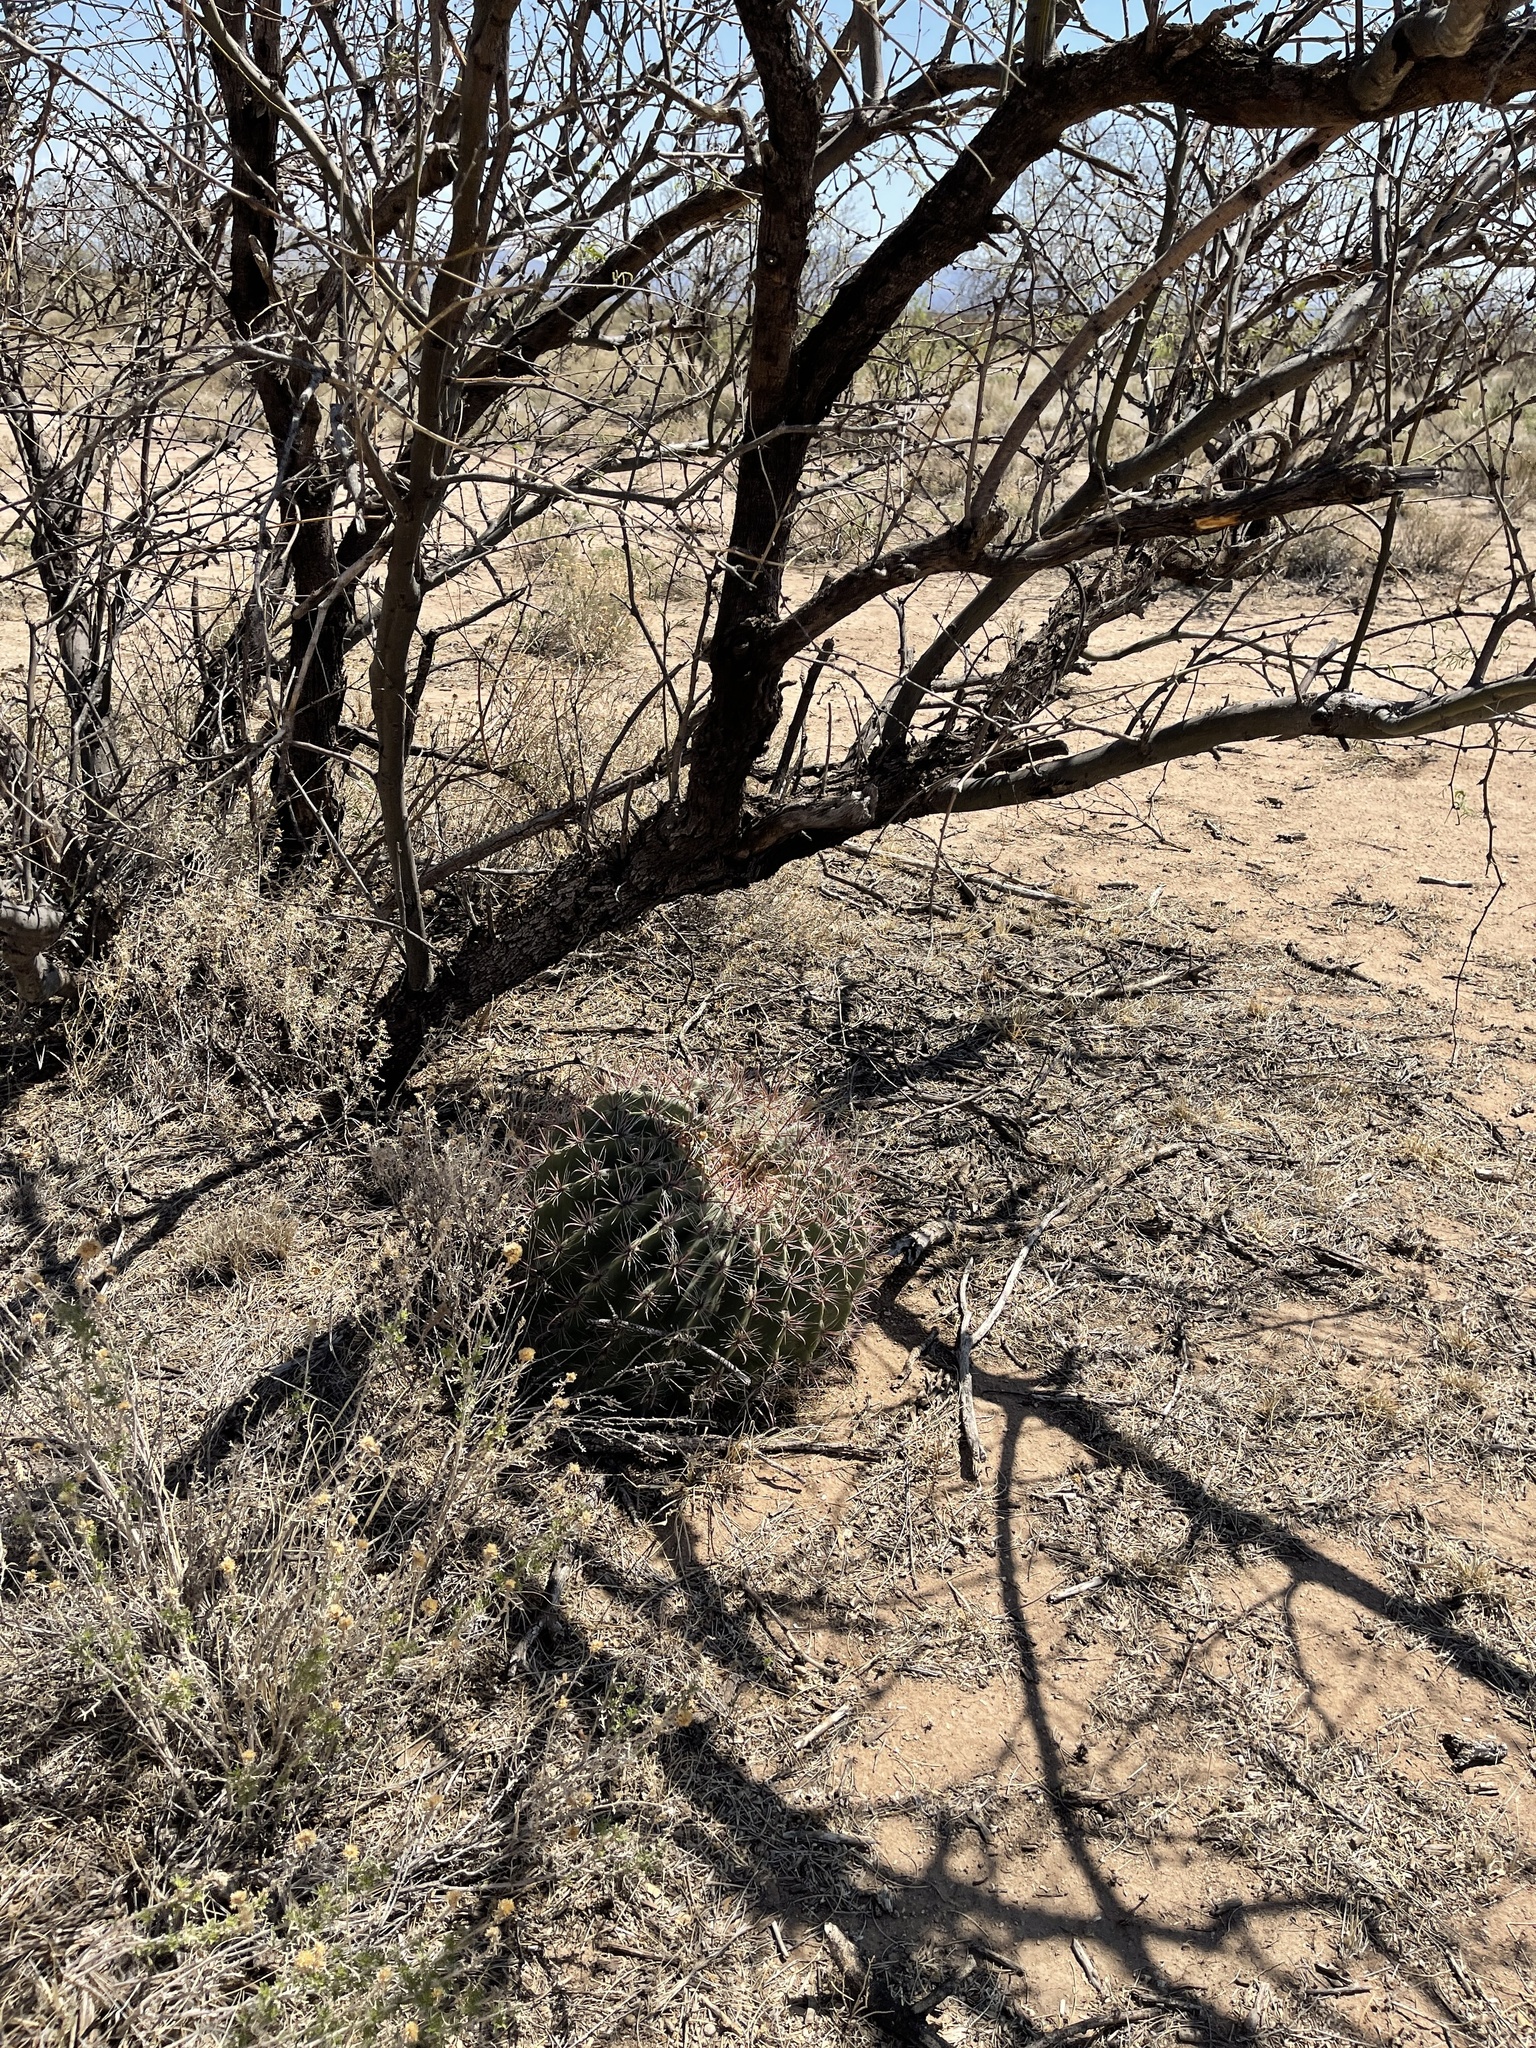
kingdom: Plantae
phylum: Tracheophyta
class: Magnoliopsida
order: Caryophyllales
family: Cactaceae
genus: Ferocactus
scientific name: Ferocactus wislizeni
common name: Candy barrel cactus
